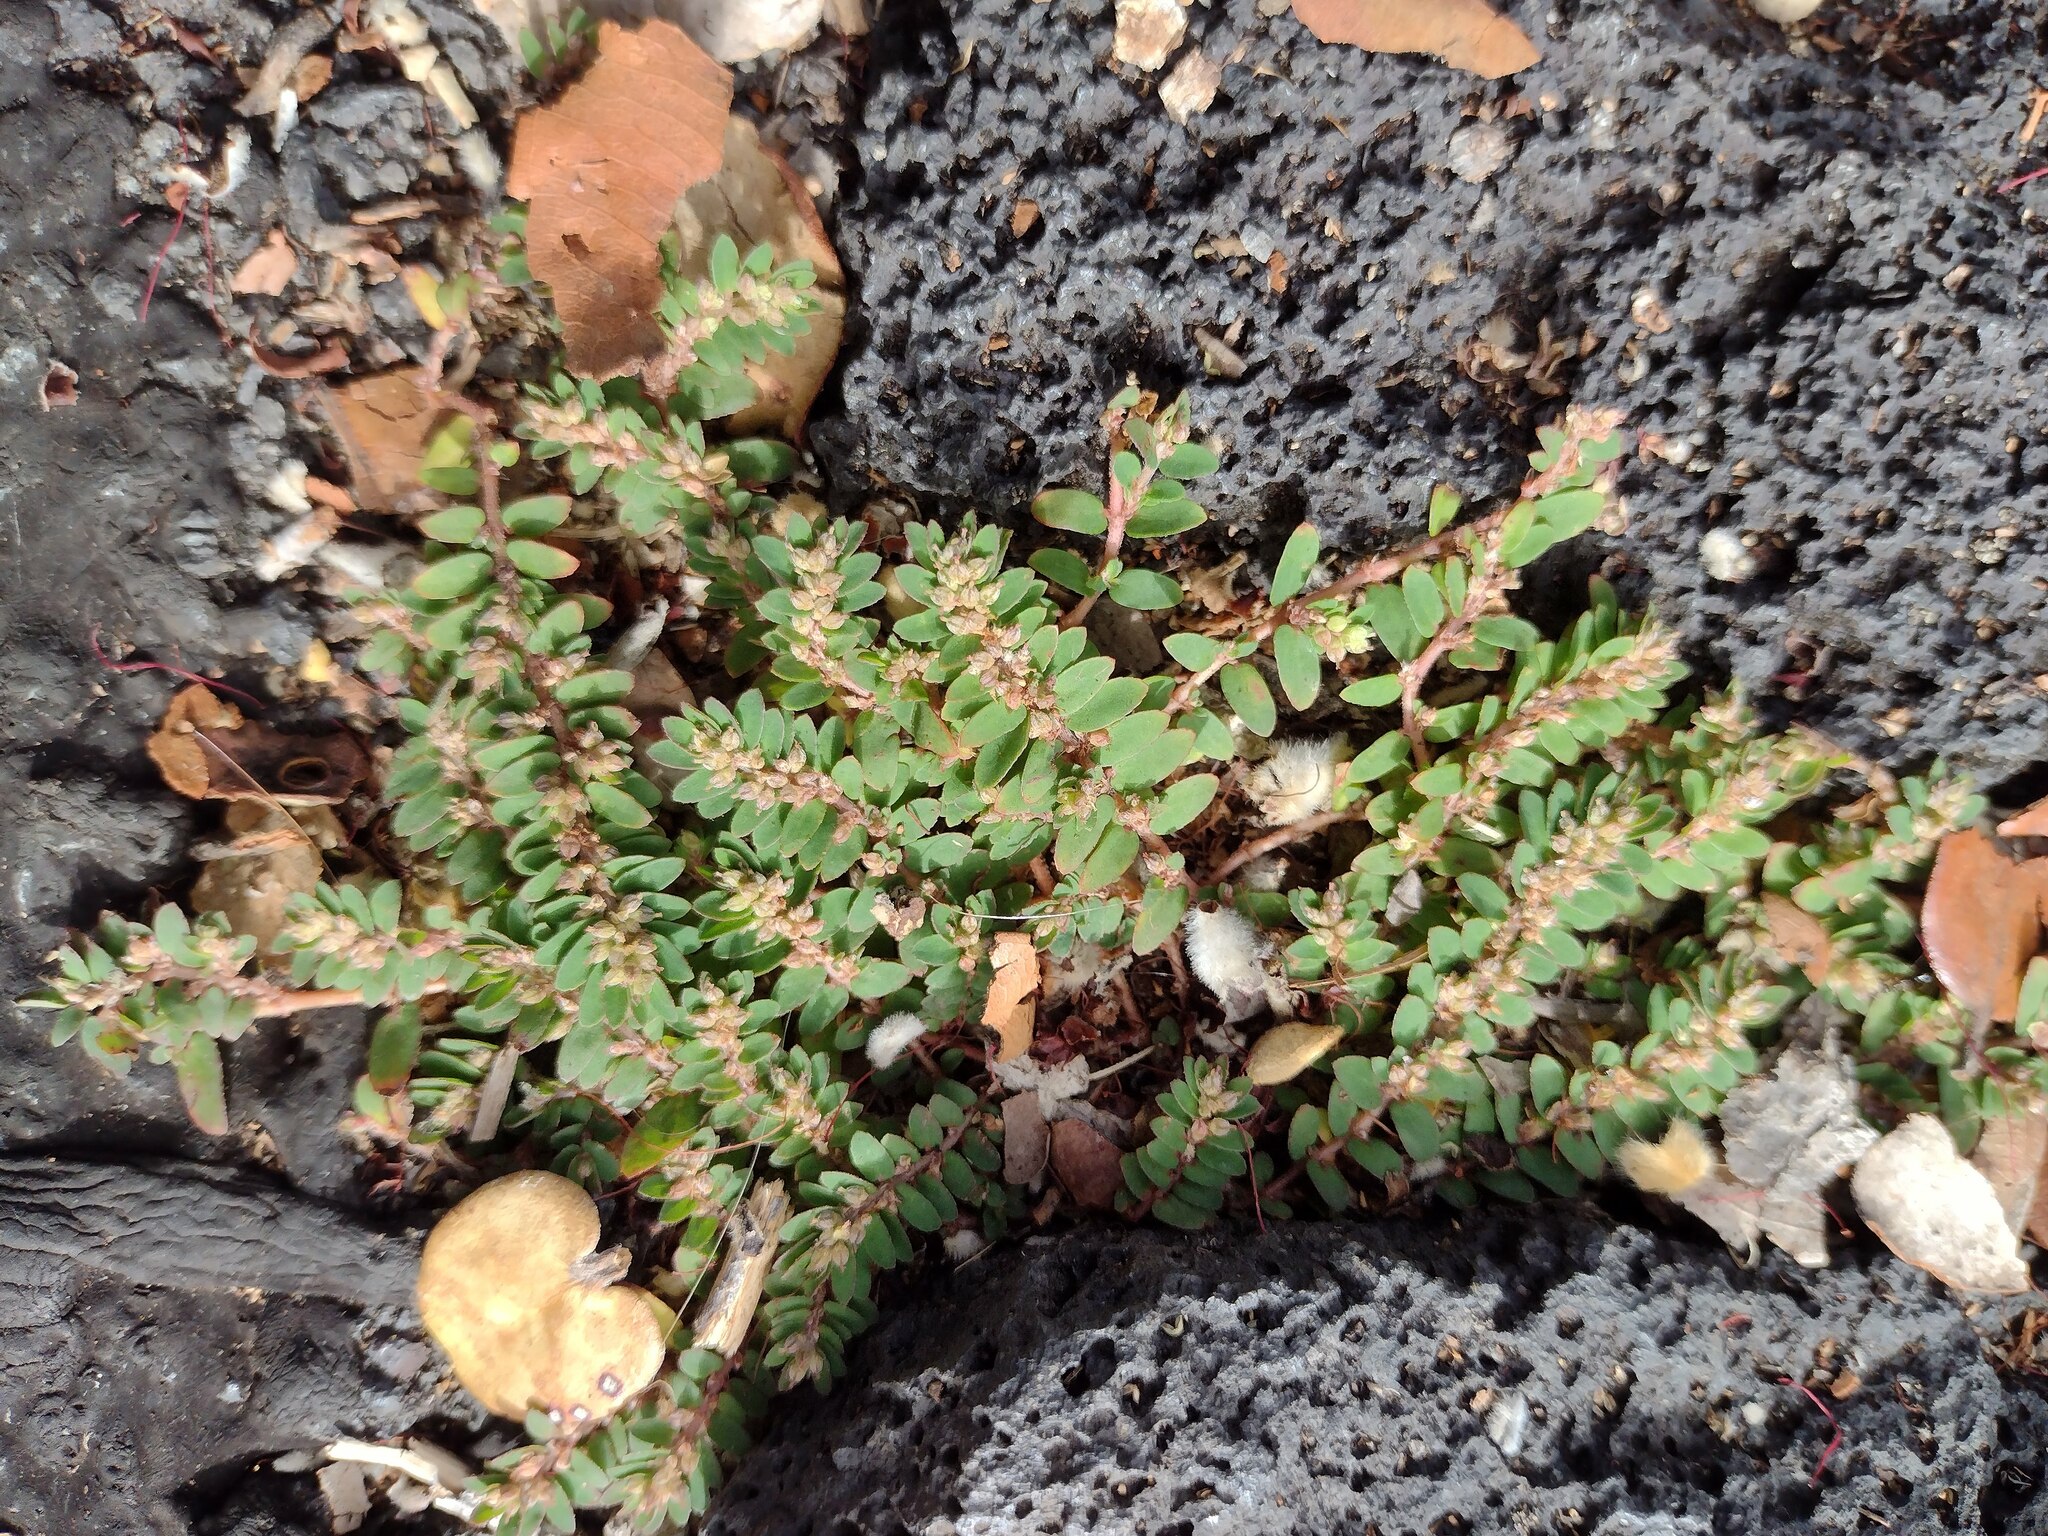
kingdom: Plantae
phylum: Tracheophyta
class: Magnoliopsida
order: Malpighiales
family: Euphorbiaceae
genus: Euphorbia
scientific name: Euphorbia thymifolia
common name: Gulf sandmat
